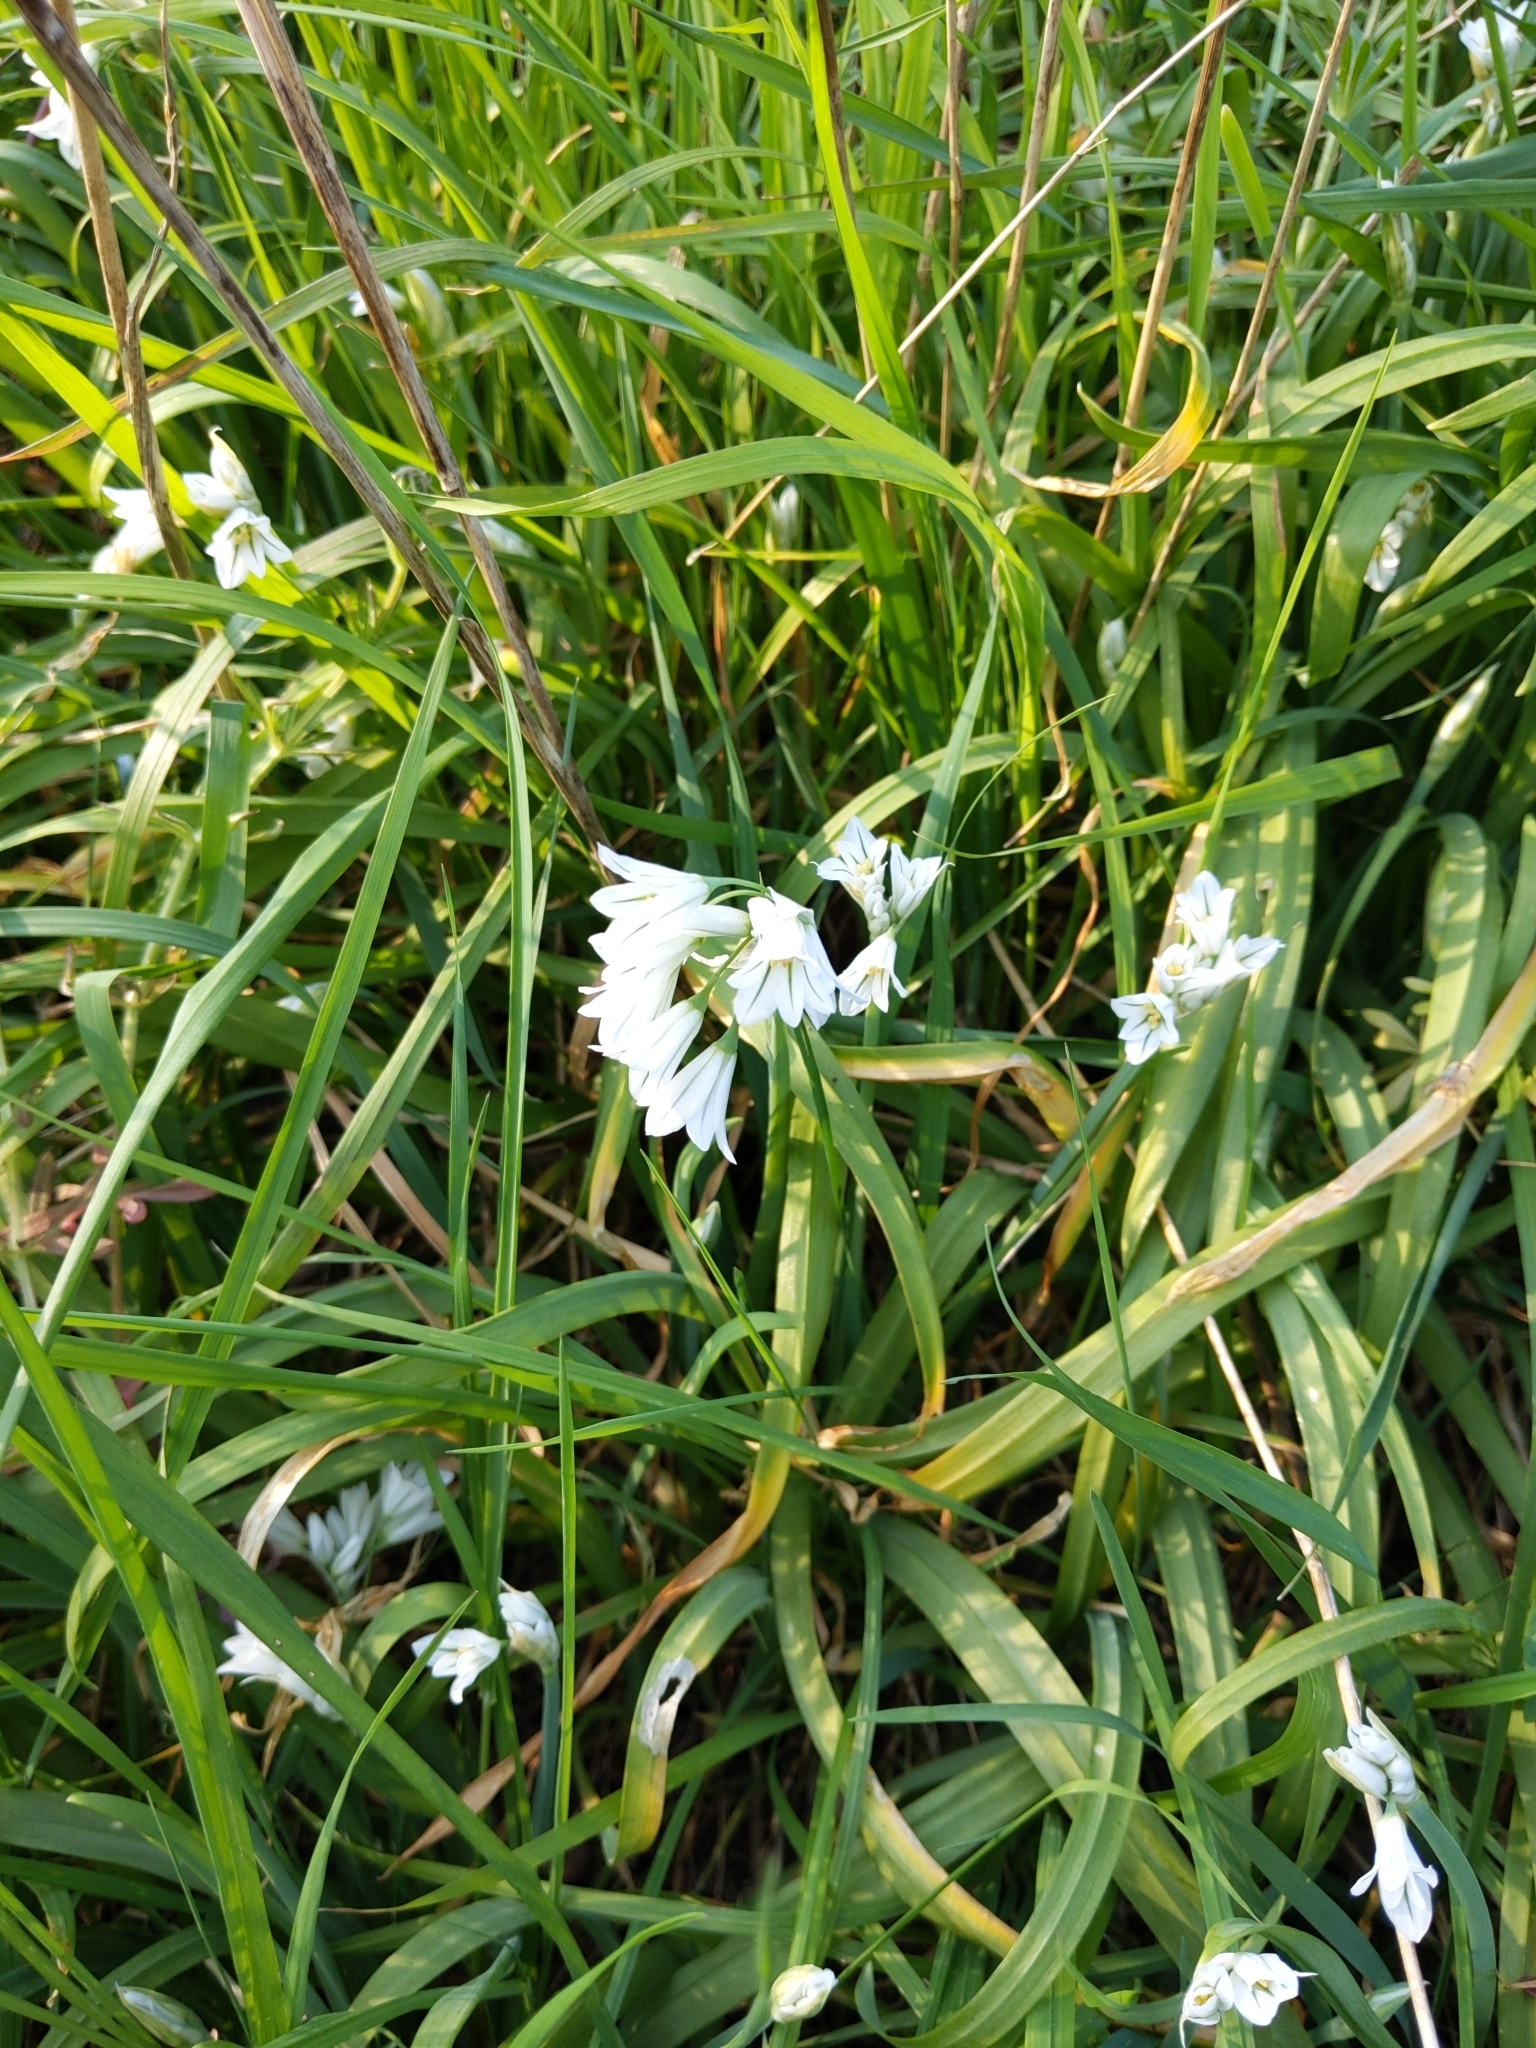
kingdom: Plantae
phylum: Tracheophyta
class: Liliopsida
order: Asparagales
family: Amaryllidaceae
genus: Allium
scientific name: Allium triquetrum
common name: Three-cornered garlic
